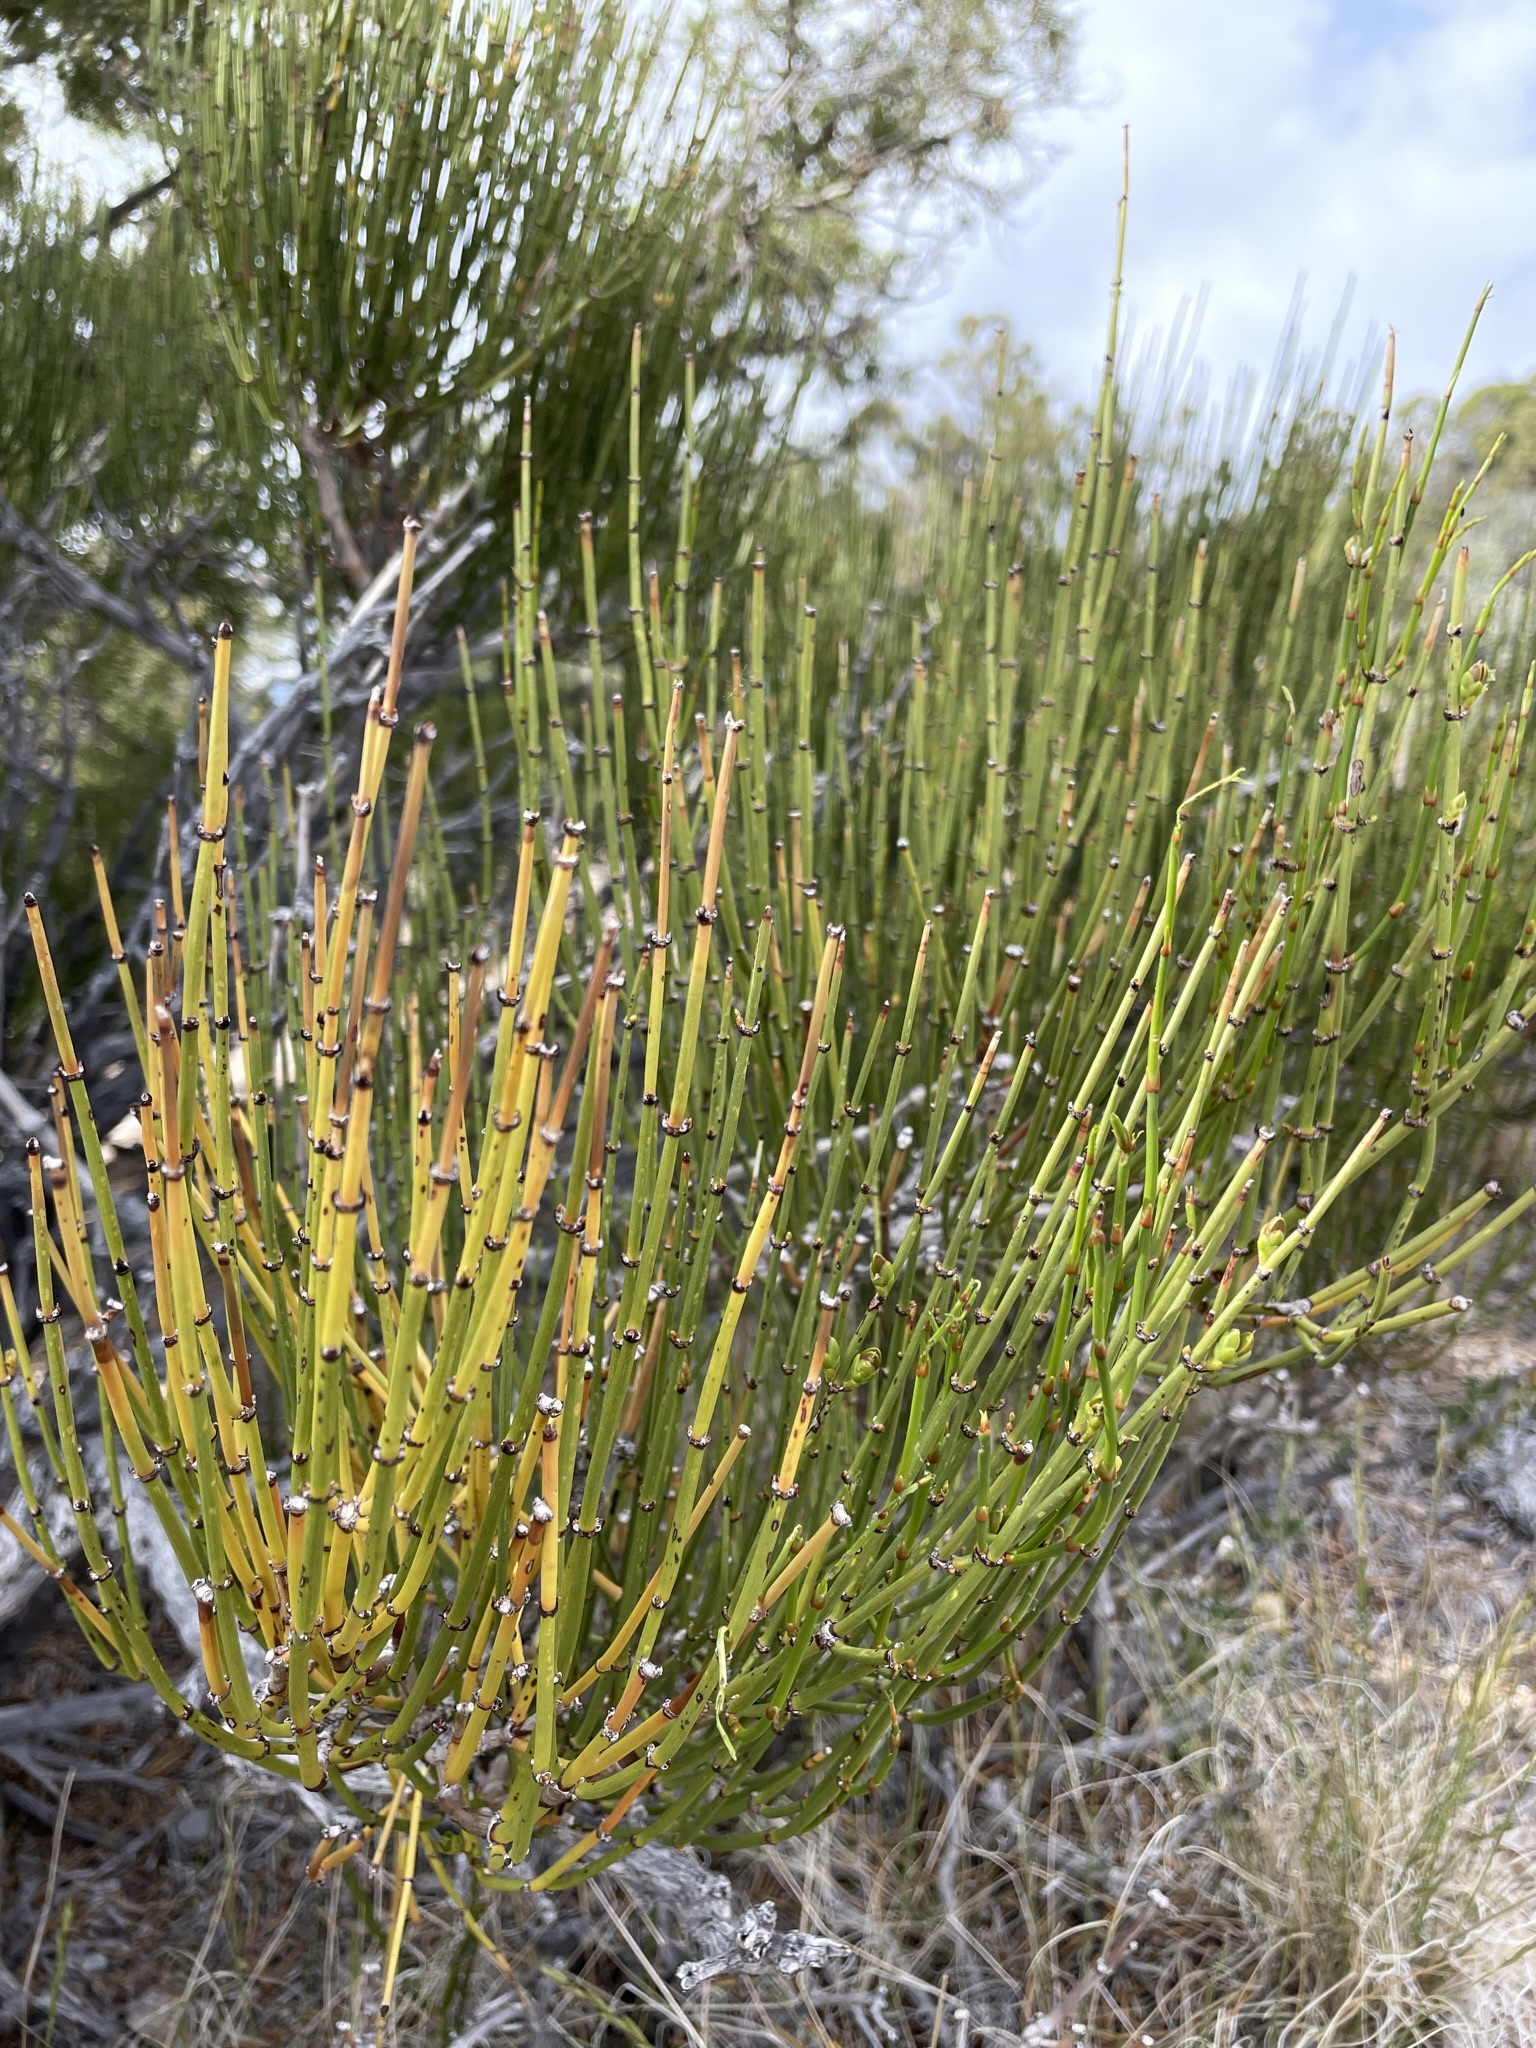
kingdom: Plantae
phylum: Tracheophyta
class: Gnetopsida
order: Ephedrales
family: Ephedraceae
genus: Ephedra
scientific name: Ephedra viridis
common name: Green ephedra
